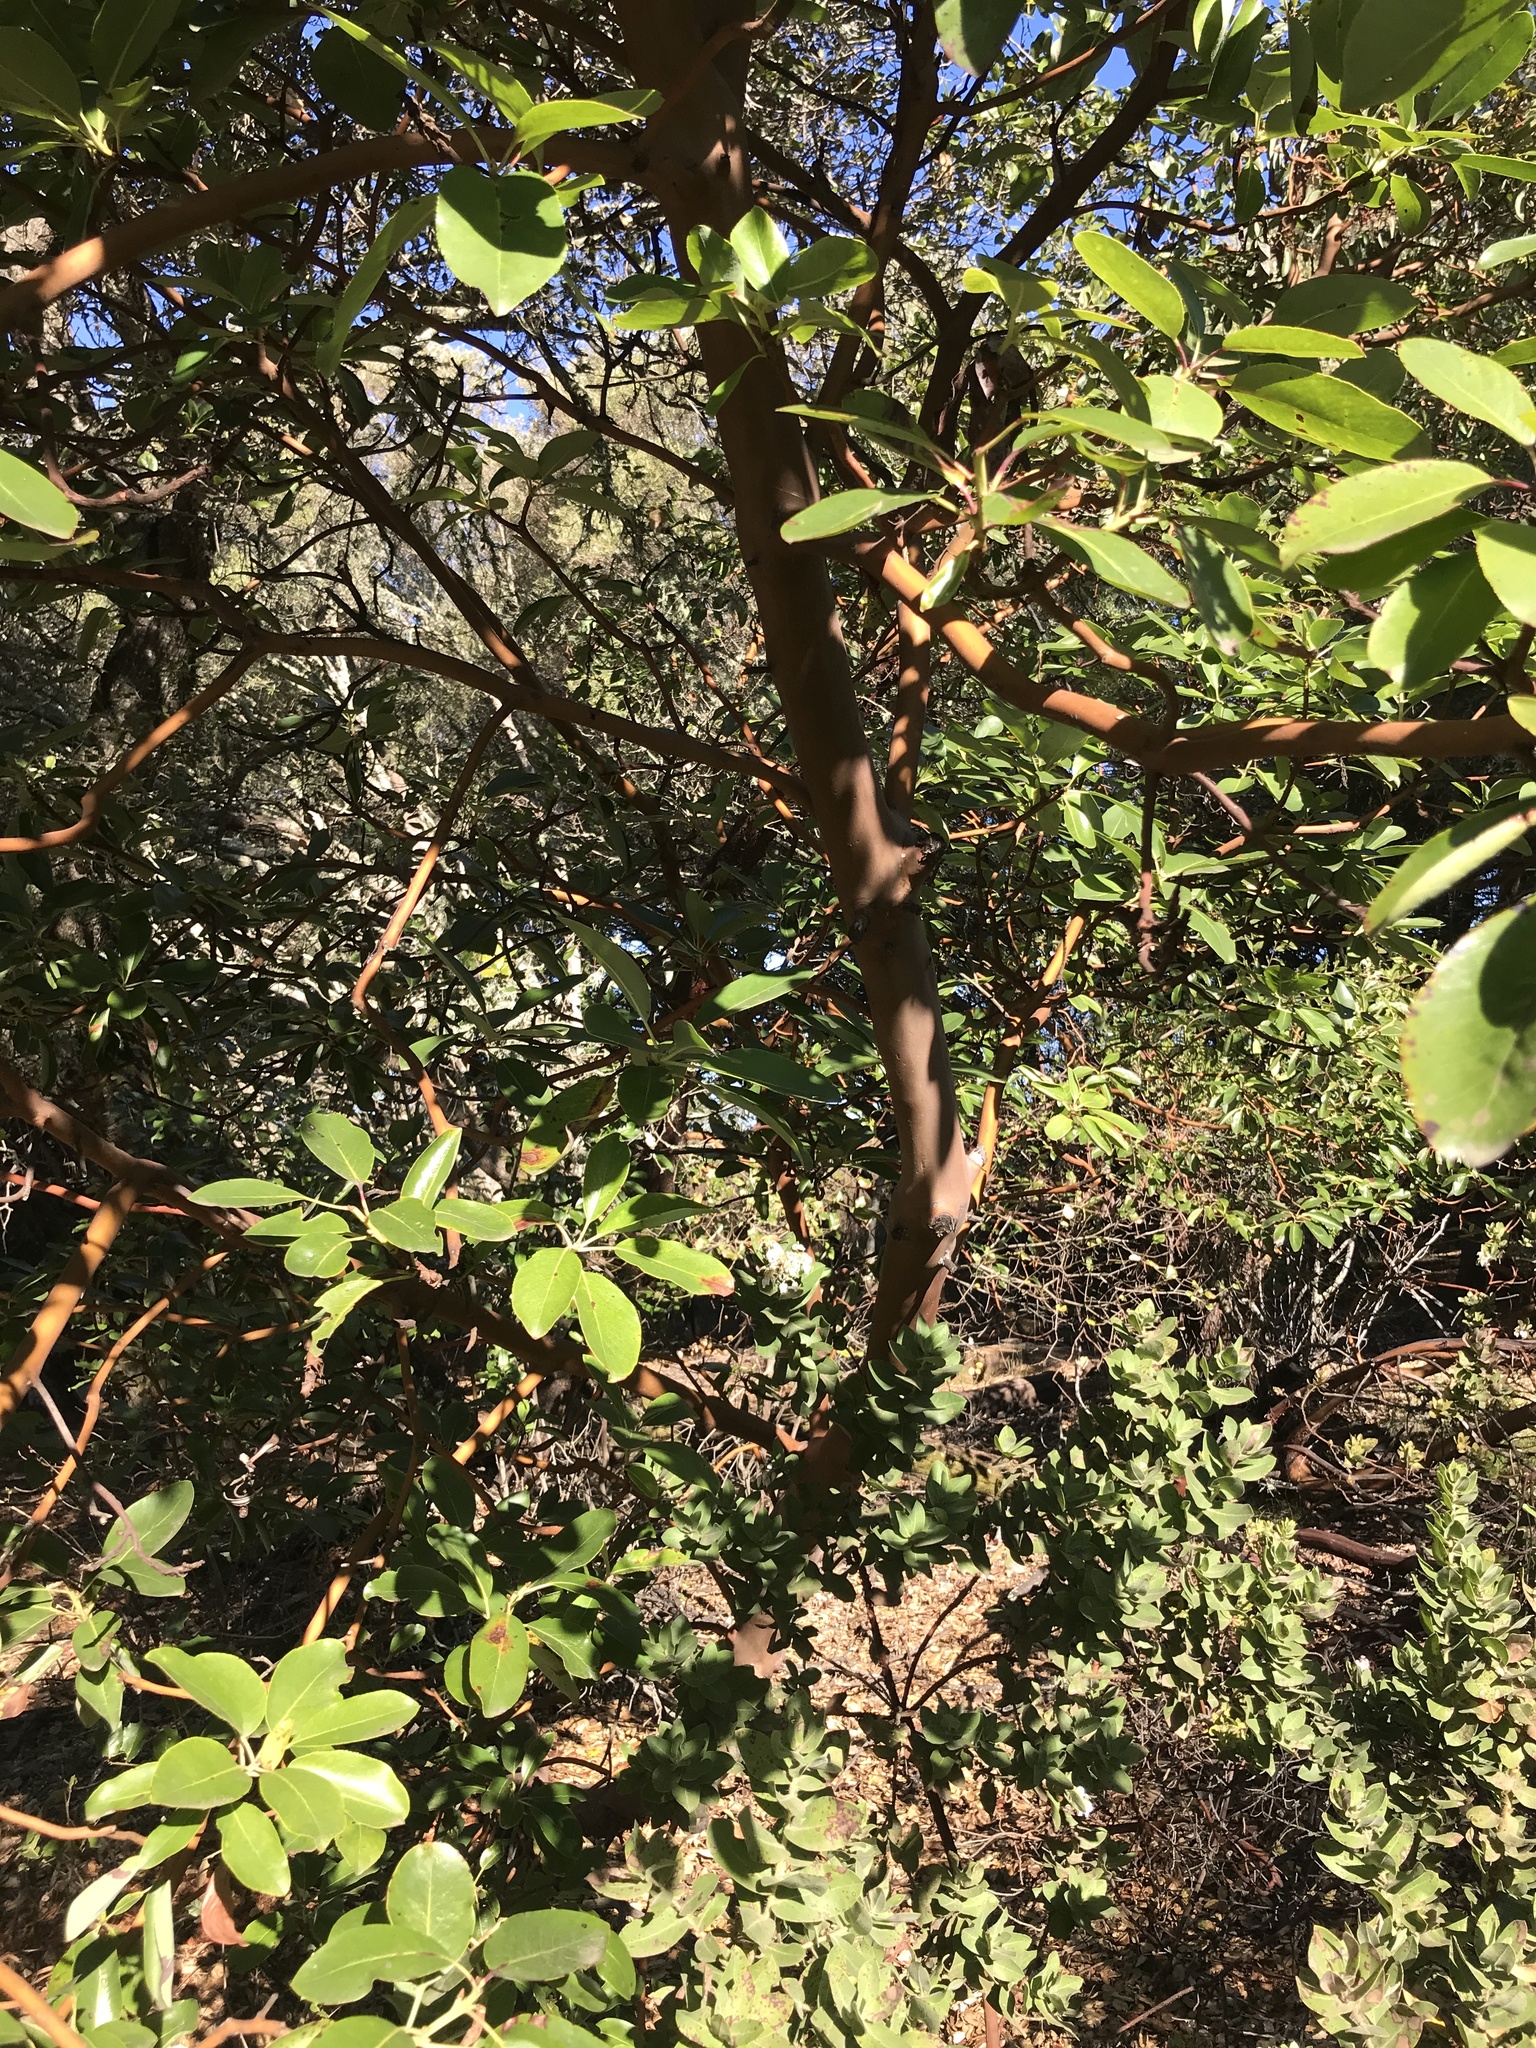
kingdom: Plantae
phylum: Tracheophyta
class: Magnoliopsida
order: Ericales
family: Ericaceae
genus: Arbutus
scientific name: Arbutus menziesii
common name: Pacific madrone
